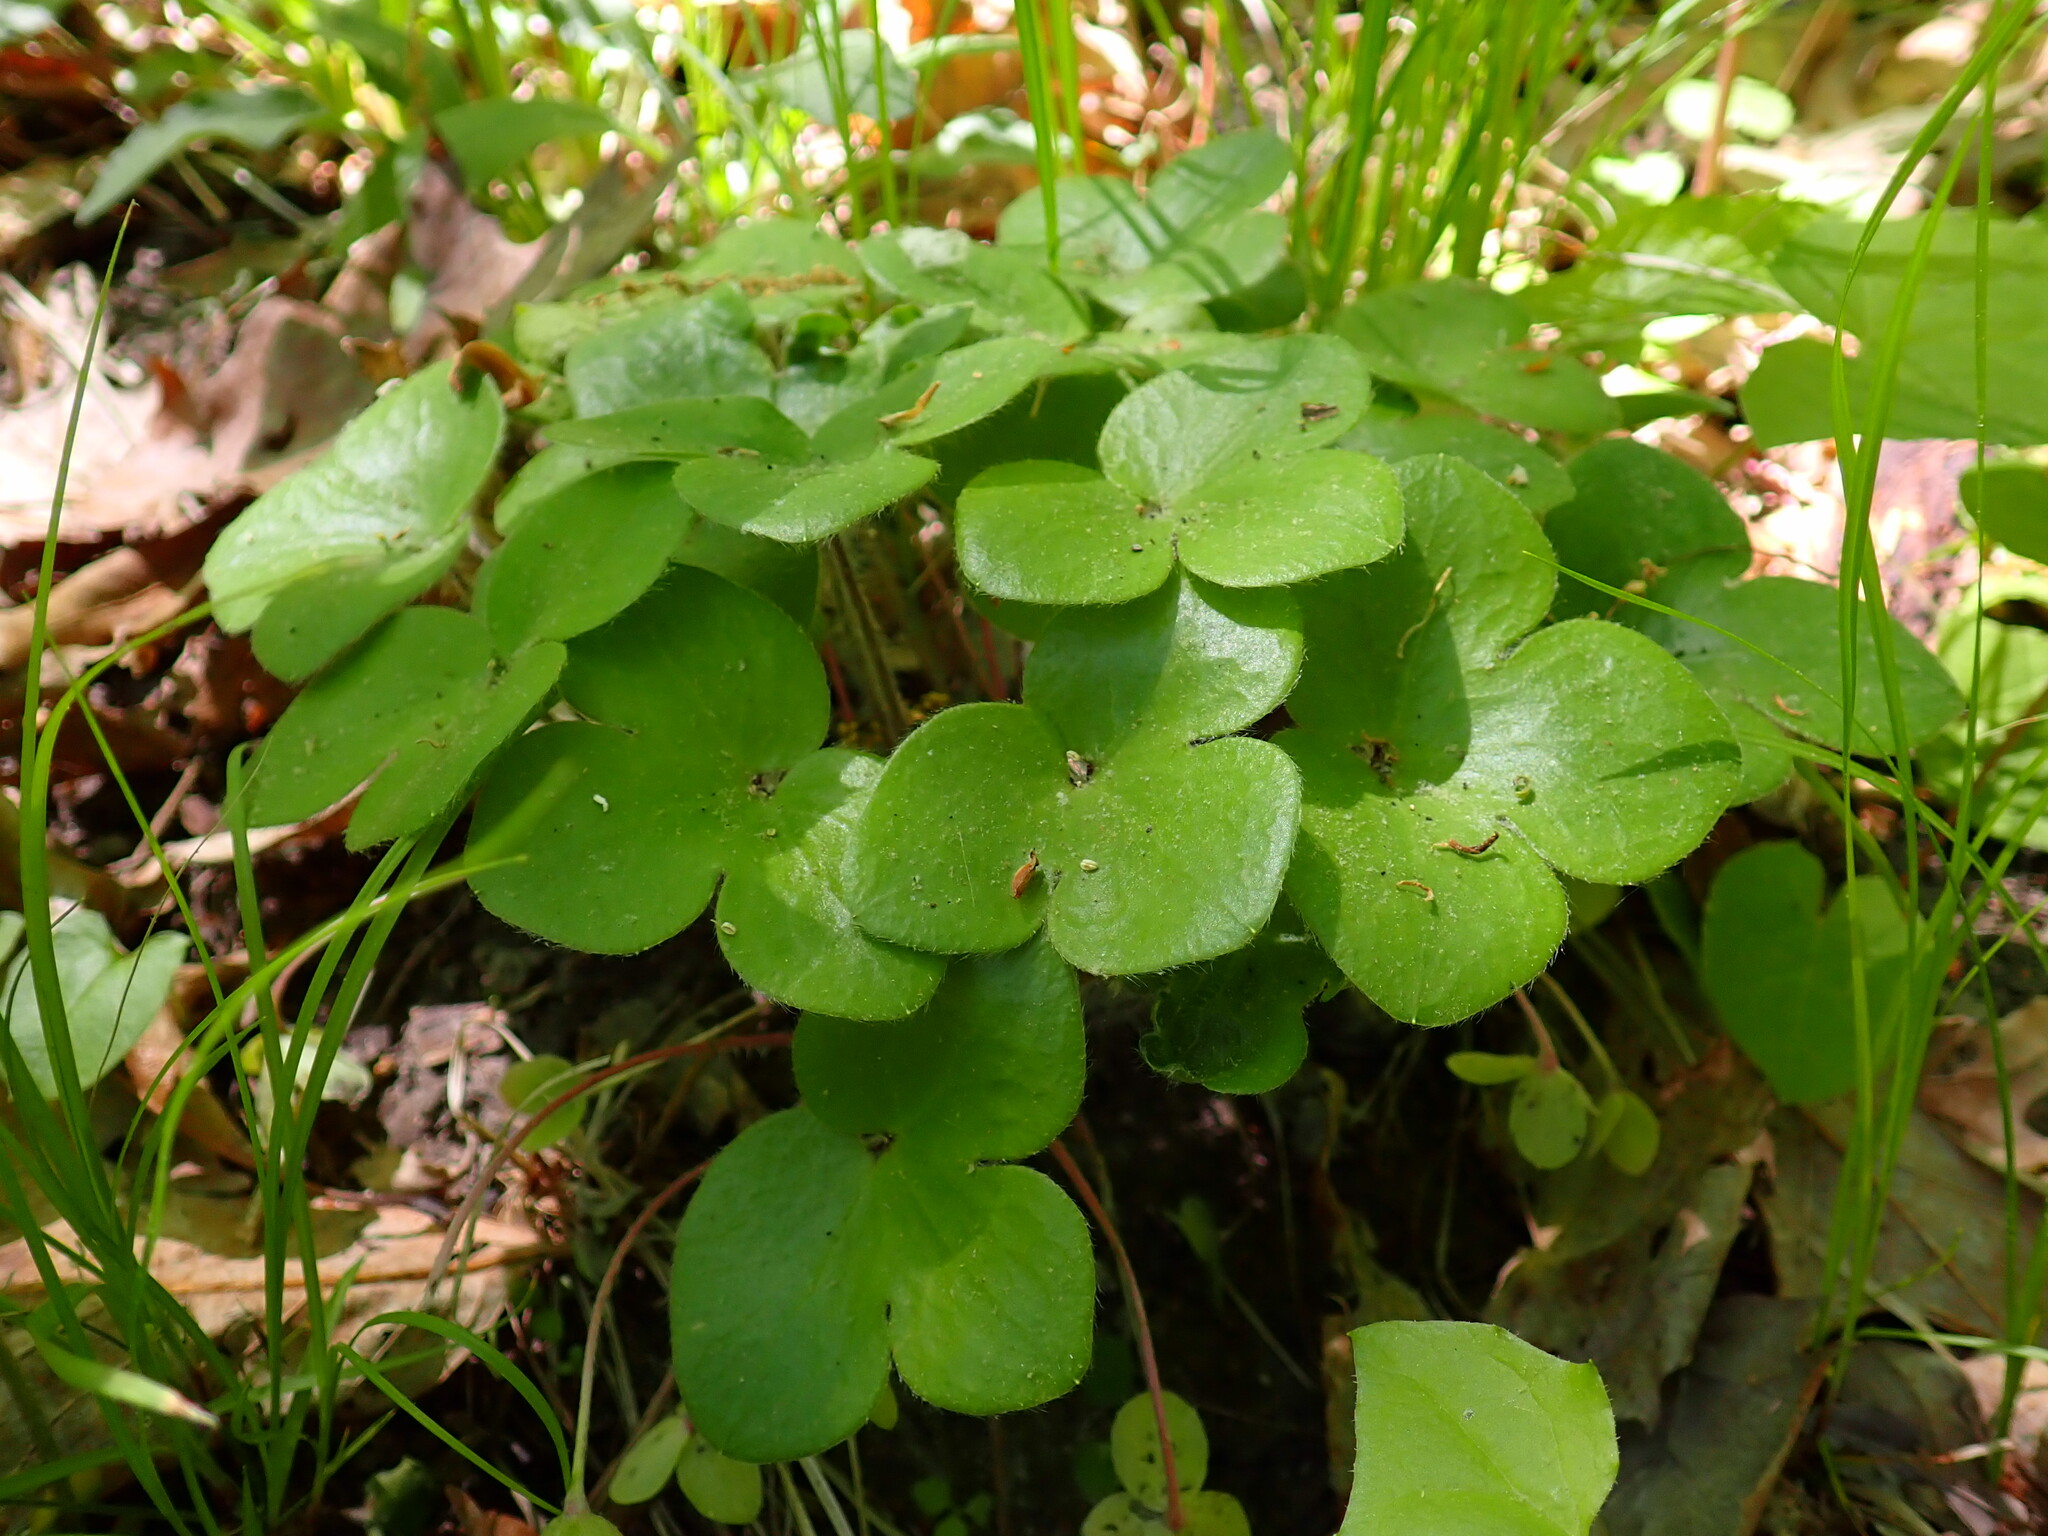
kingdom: Plantae
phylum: Tracheophyta
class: Magnoliopsida
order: Ranunculales
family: Ranunculaceae
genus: Hepatica
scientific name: Hepatica americana
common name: American hepatica
